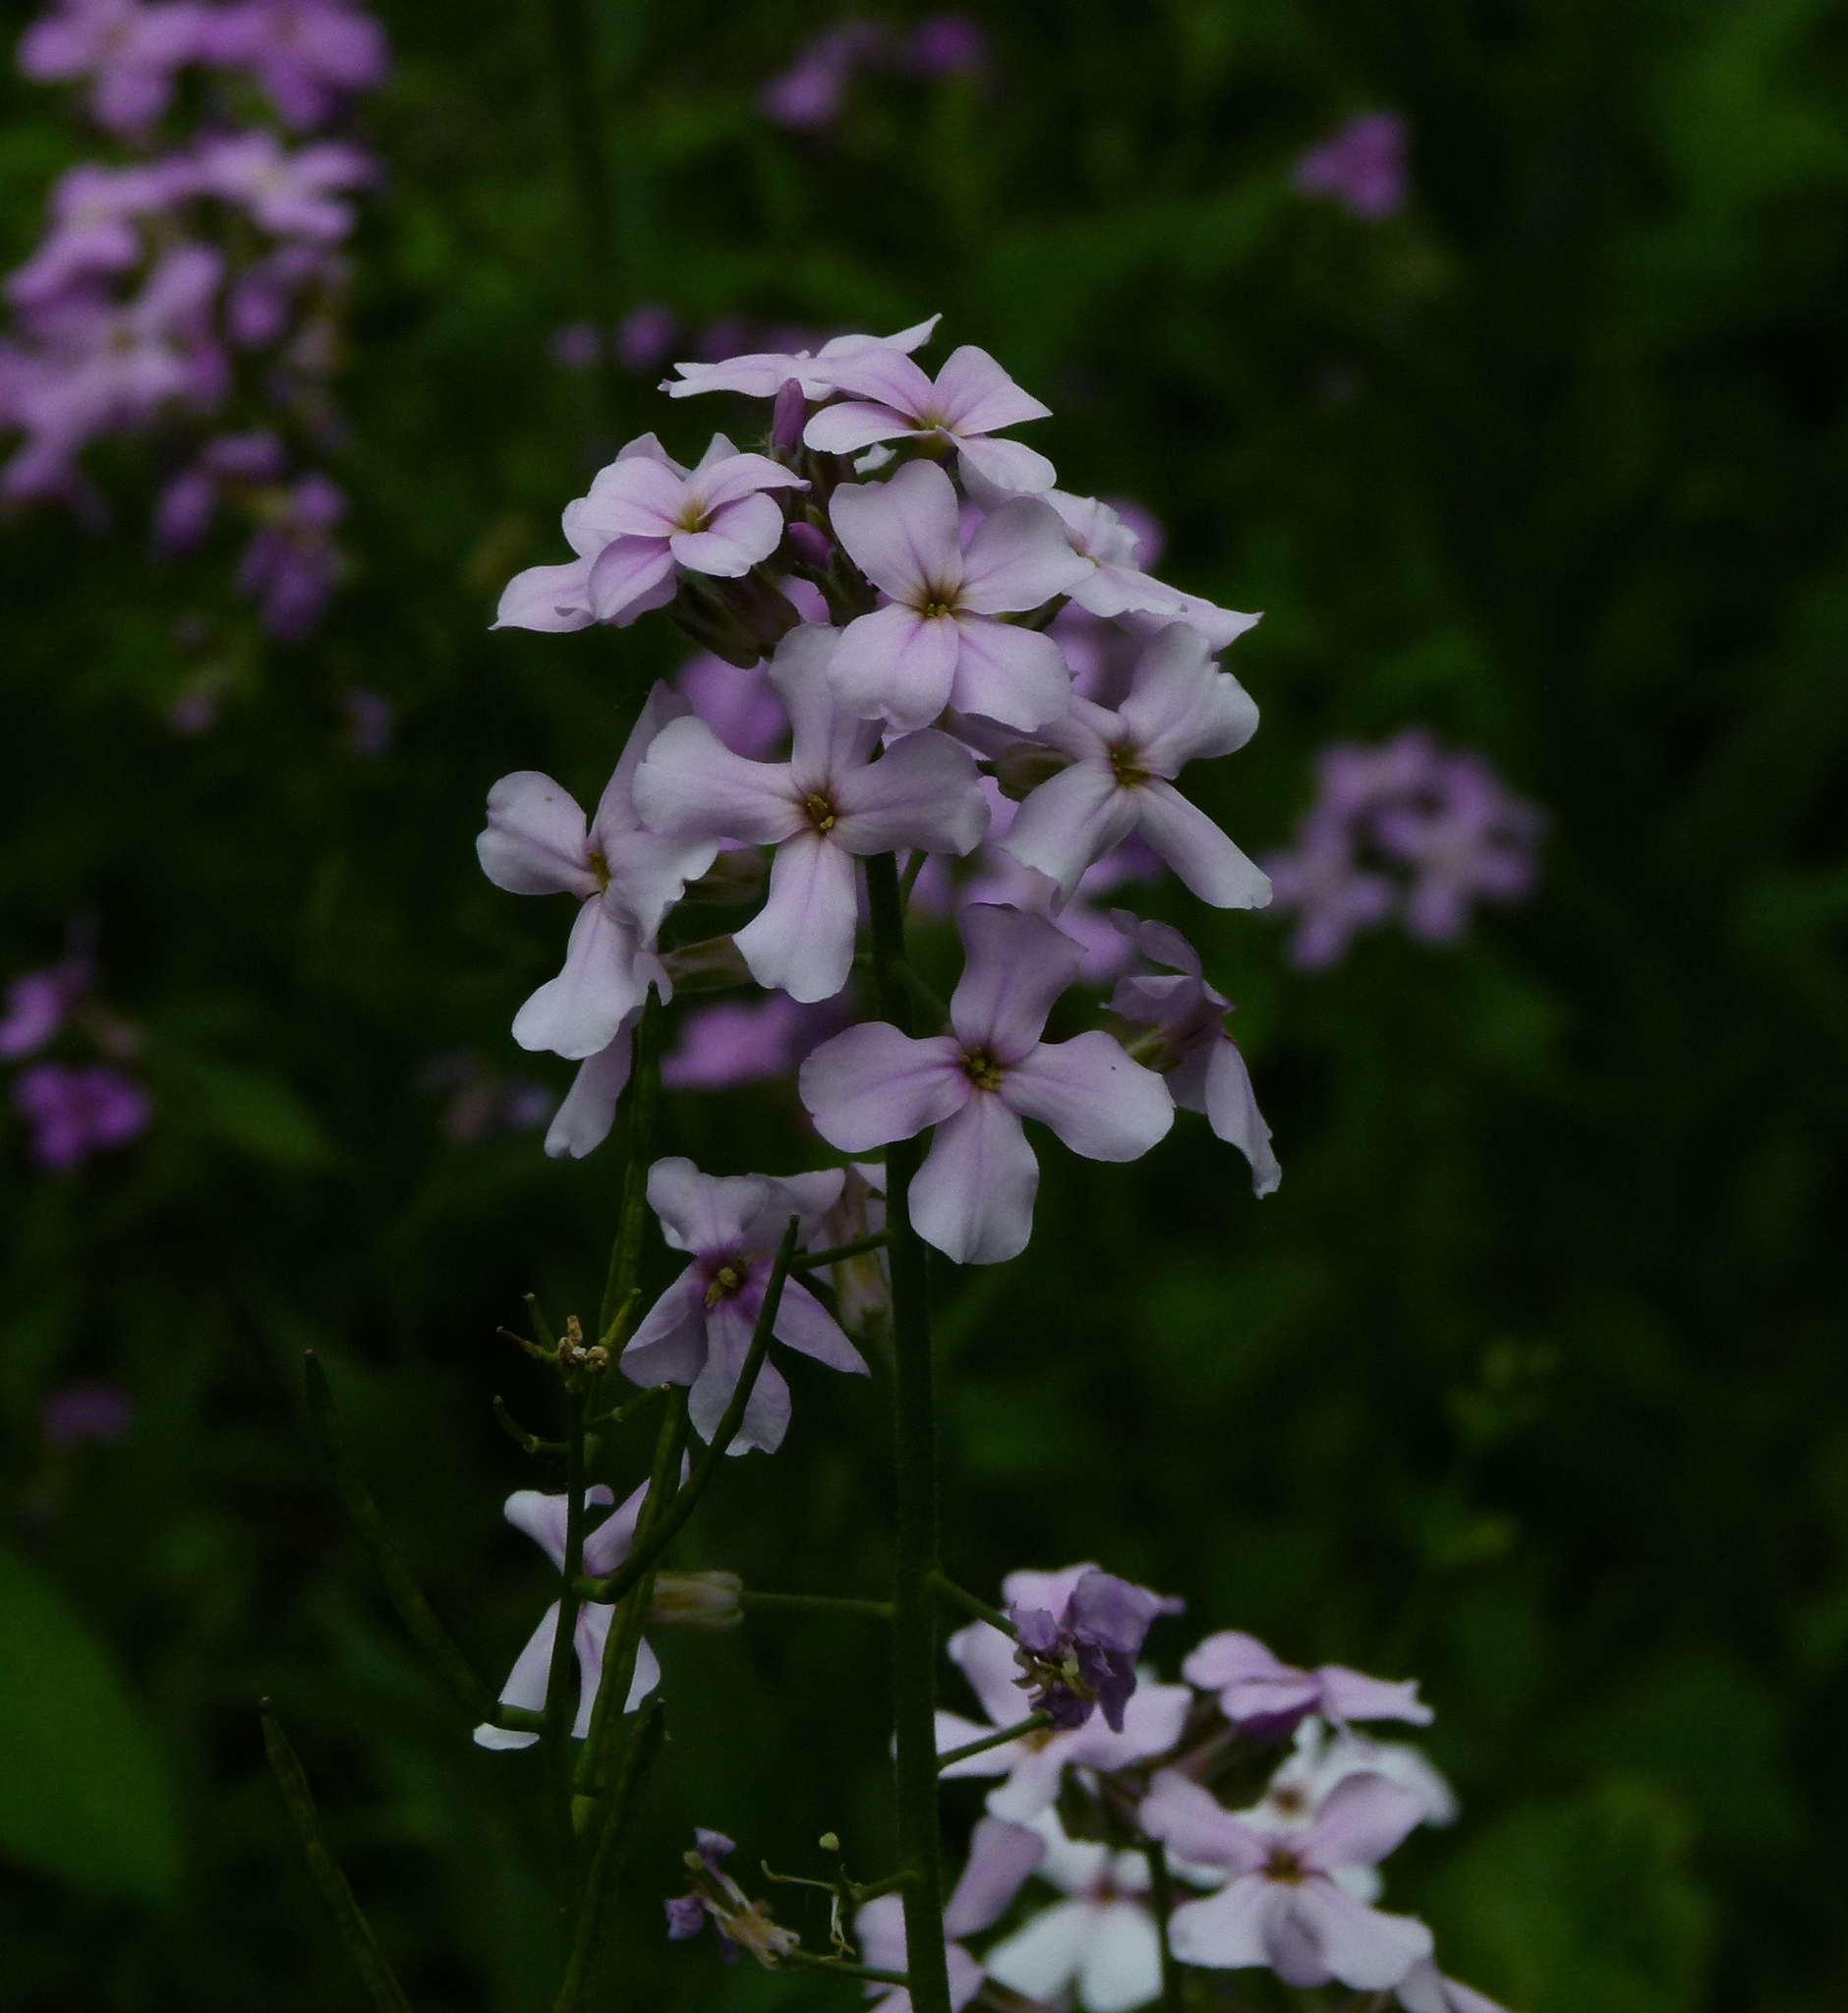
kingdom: Plantae
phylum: Tracheophyta
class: Magnoliopsida
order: Brassicales
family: Brassicaceae
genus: Hesperis
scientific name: Hesperis matronalis
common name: Dame's-violet
